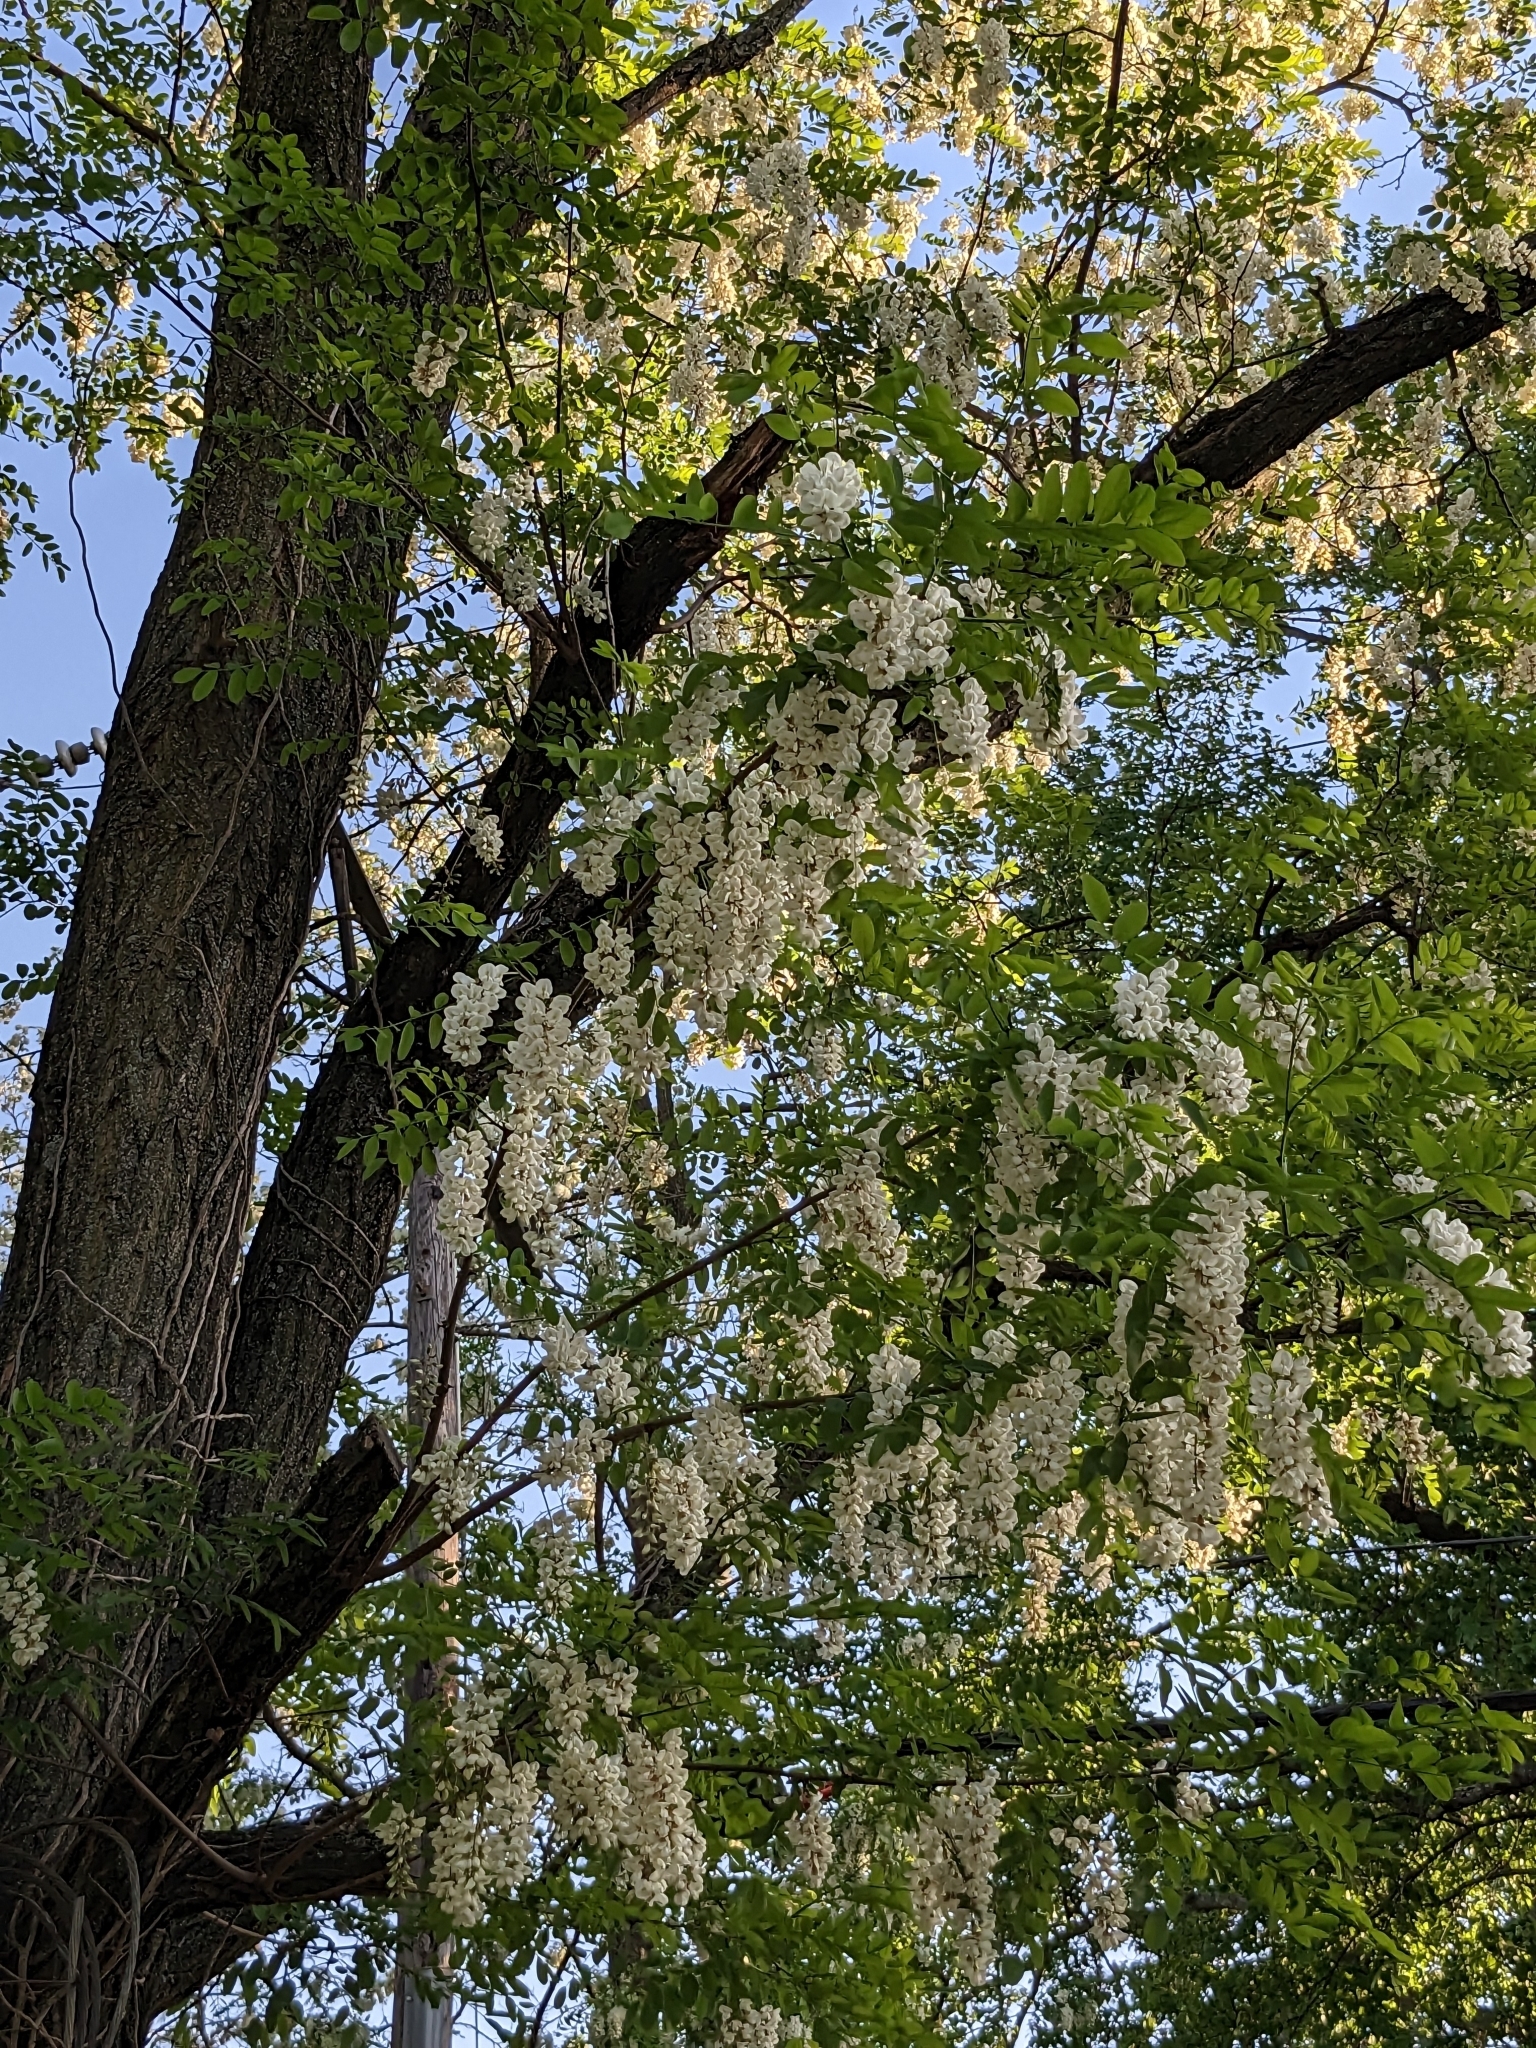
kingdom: Plantae
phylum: Tracheophyta
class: Magnoliopsida
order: Fabales
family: Fabaceae
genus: Robinia
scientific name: Robinia pseudoacacia
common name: Black locust
